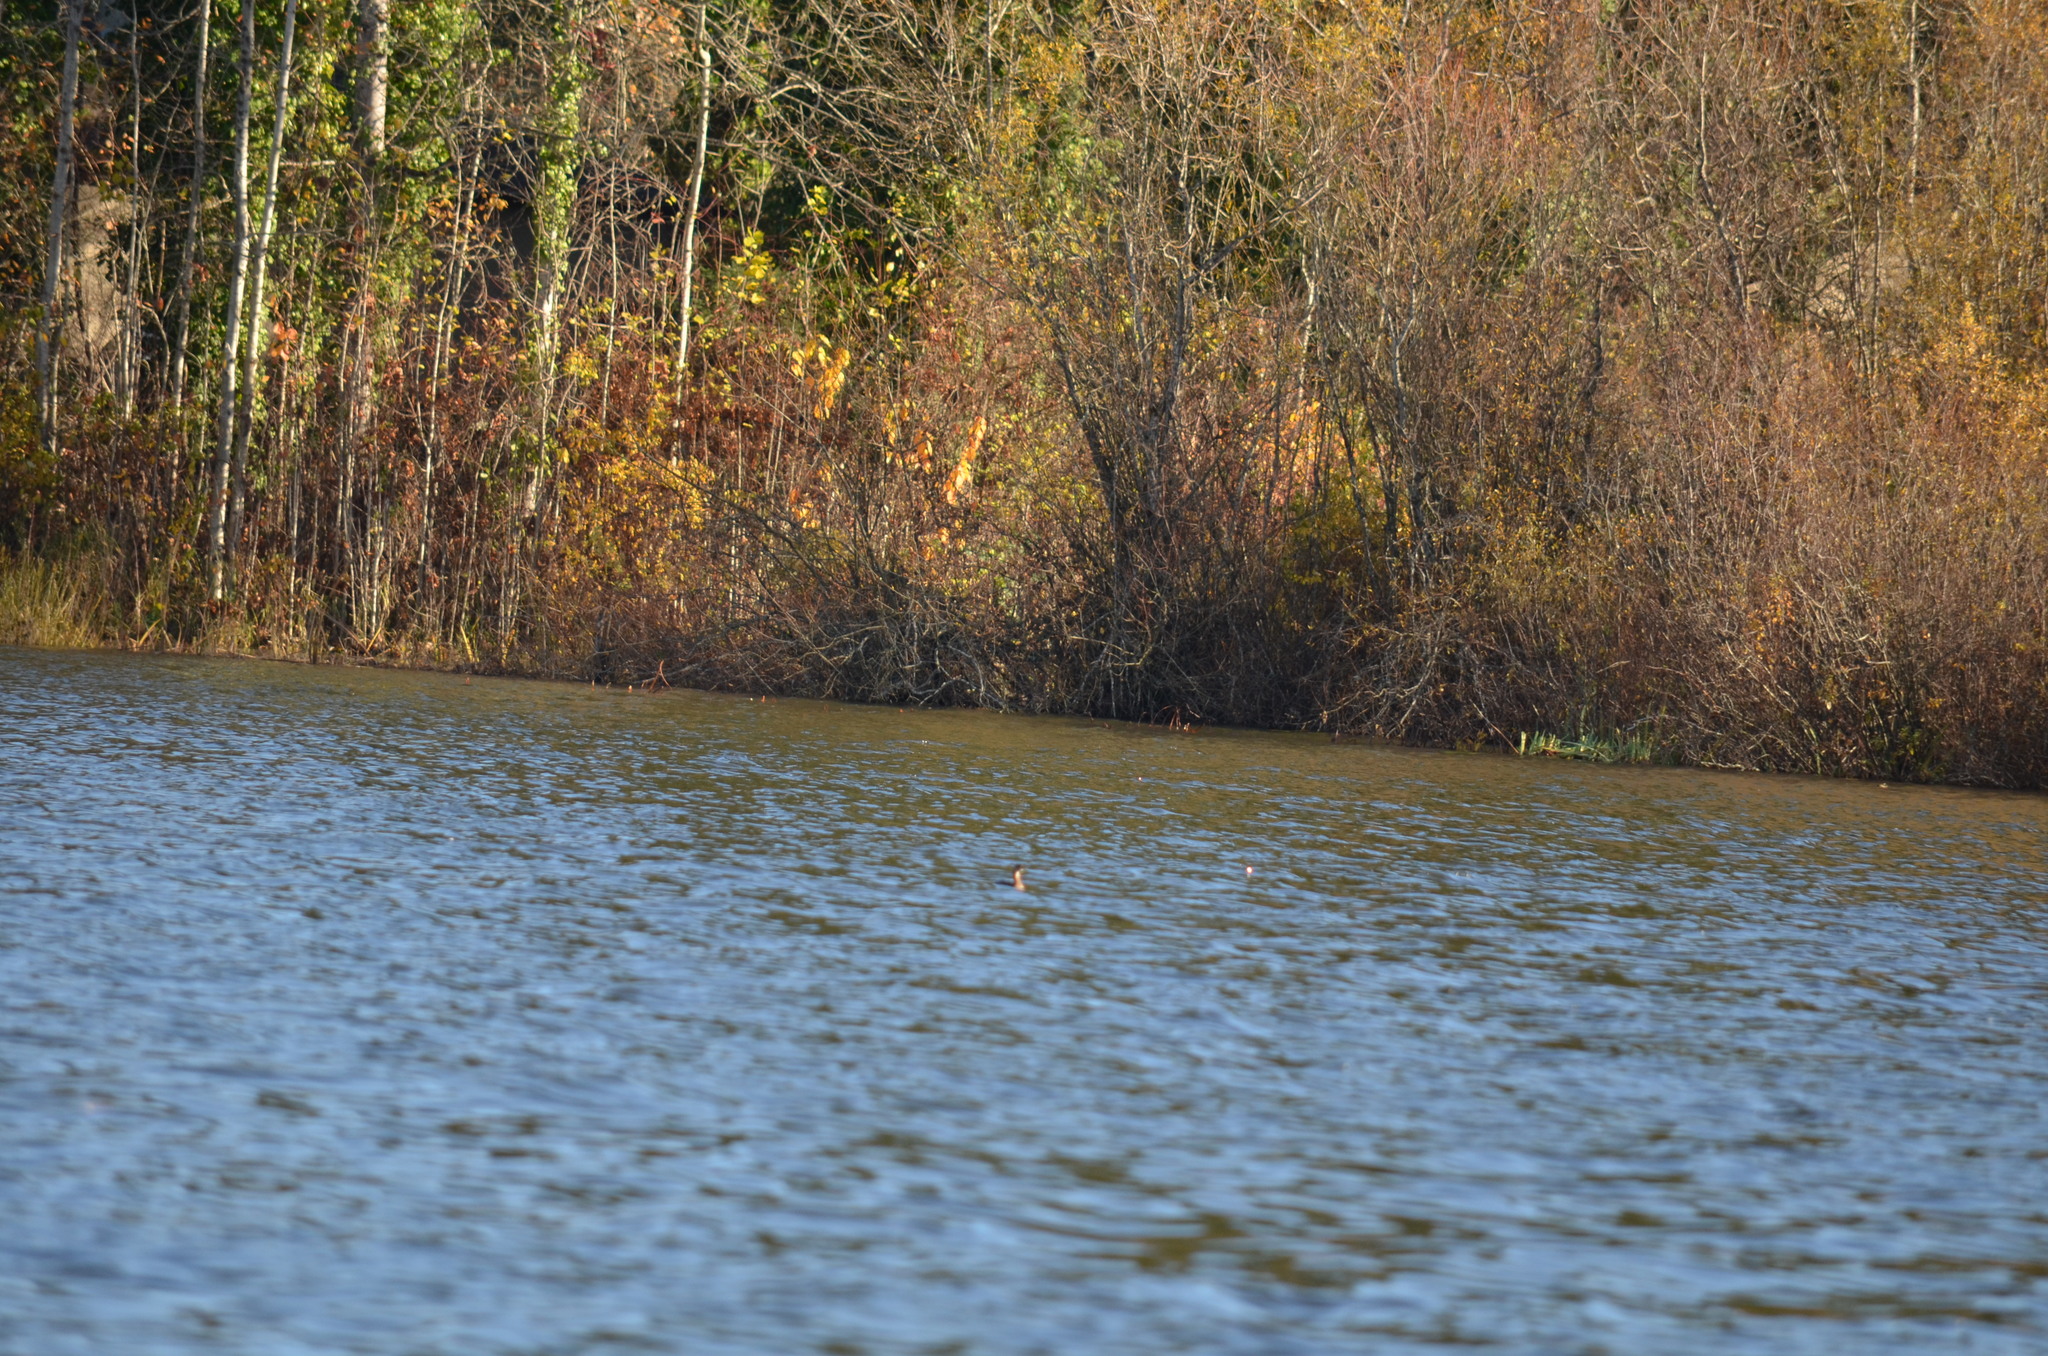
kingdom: Animalia
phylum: Chordata
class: Aves
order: Podicipediformes
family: Podicipedidae
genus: Podiceps
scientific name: Podiceps grisegena
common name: Red-necked grebe
